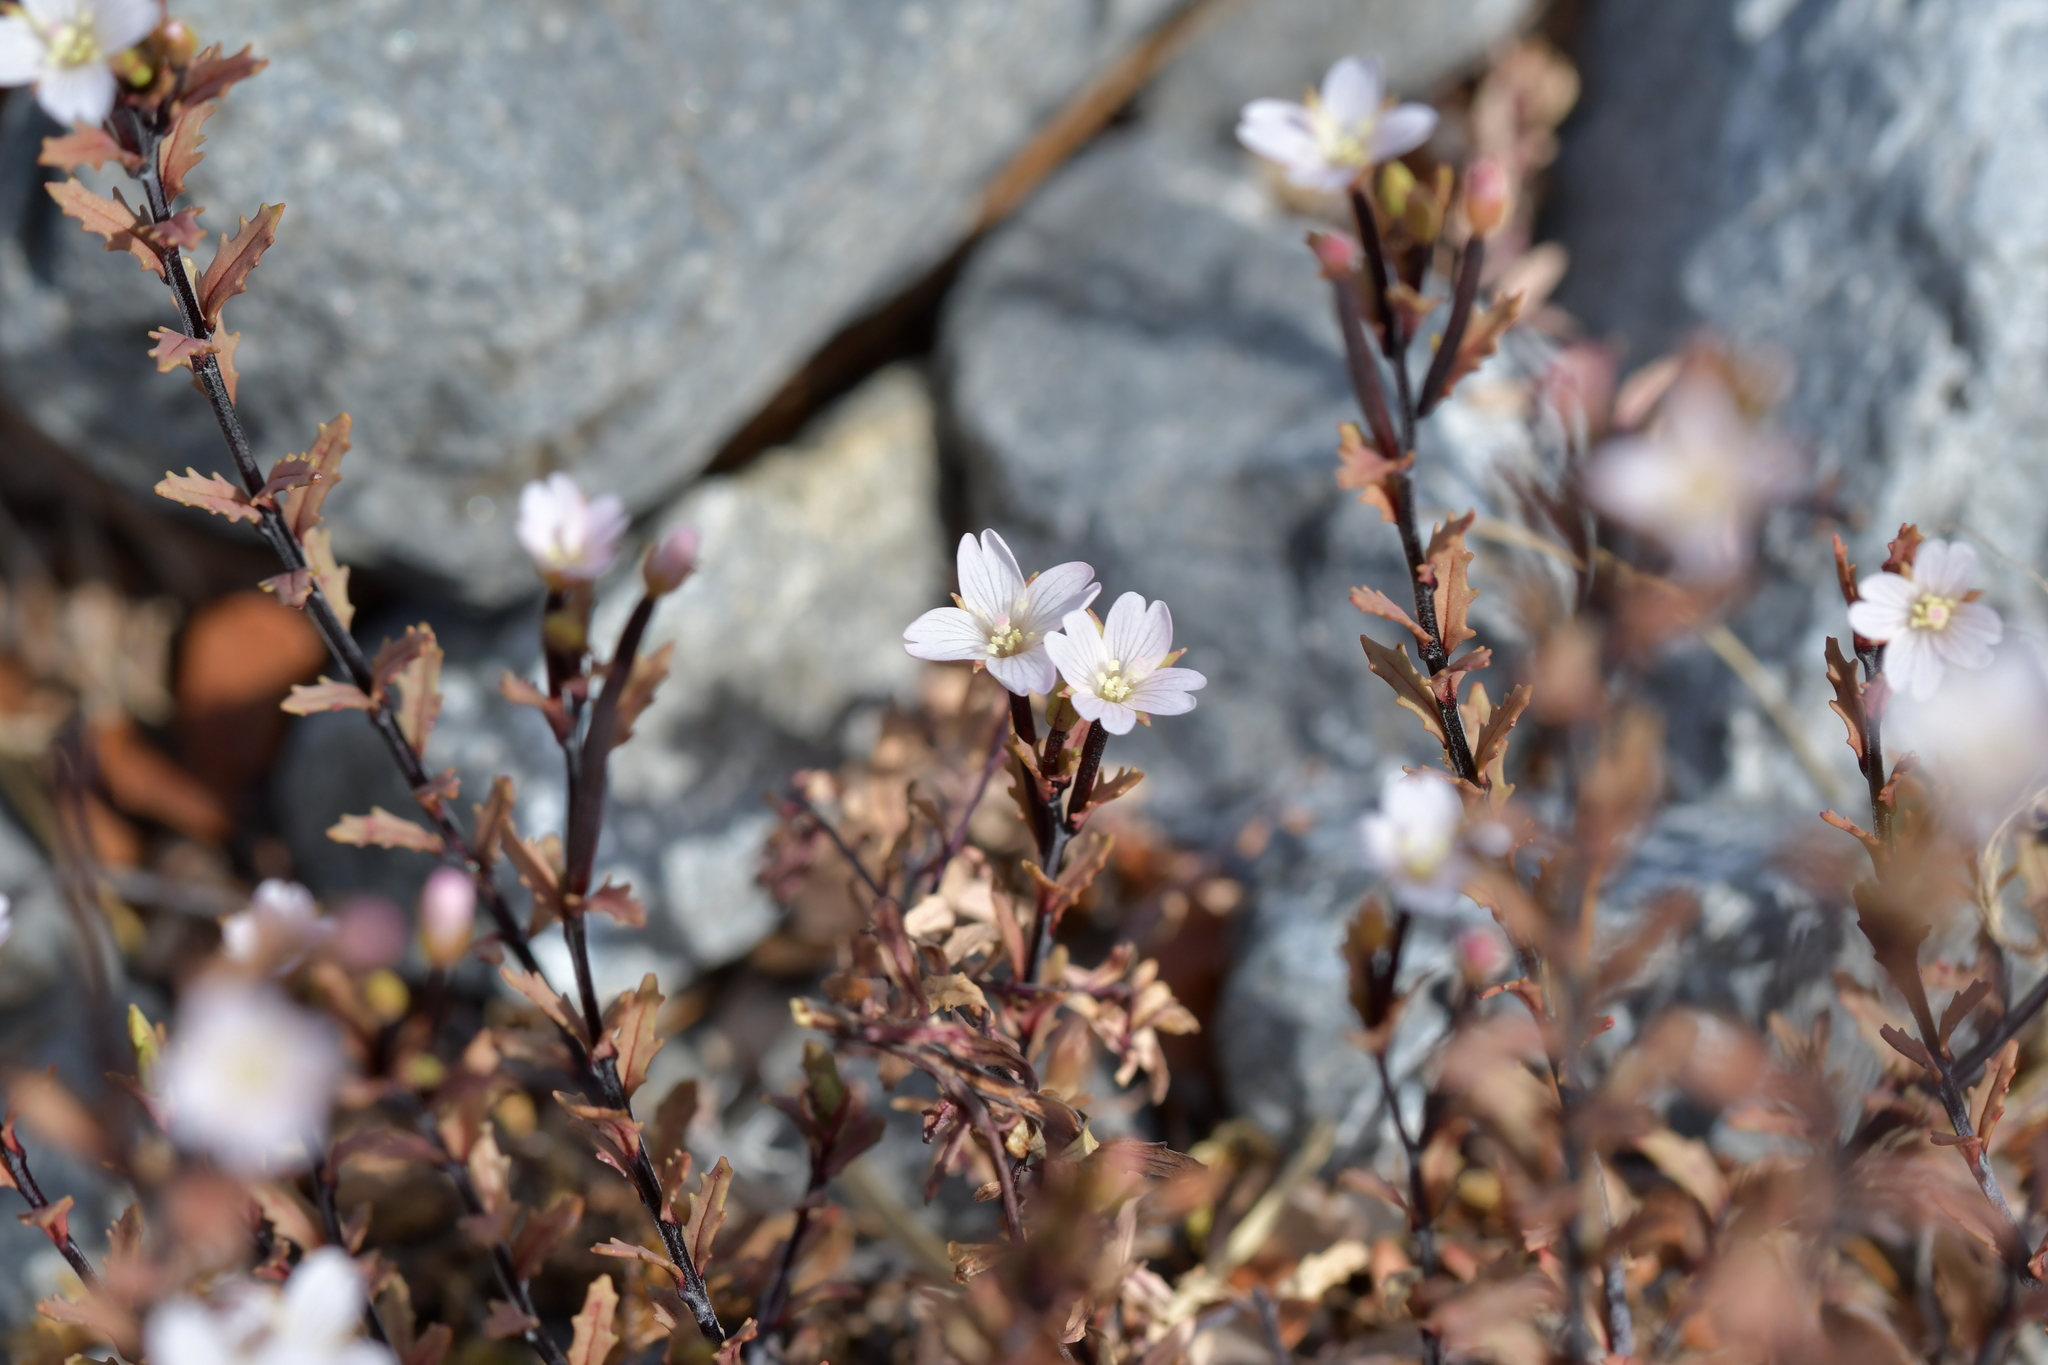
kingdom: Plantae
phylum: Tracheophyta
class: Magnoliopsida
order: Myrtales
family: Onagraceae
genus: Epilobium
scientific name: Epilobium melanocaulon
